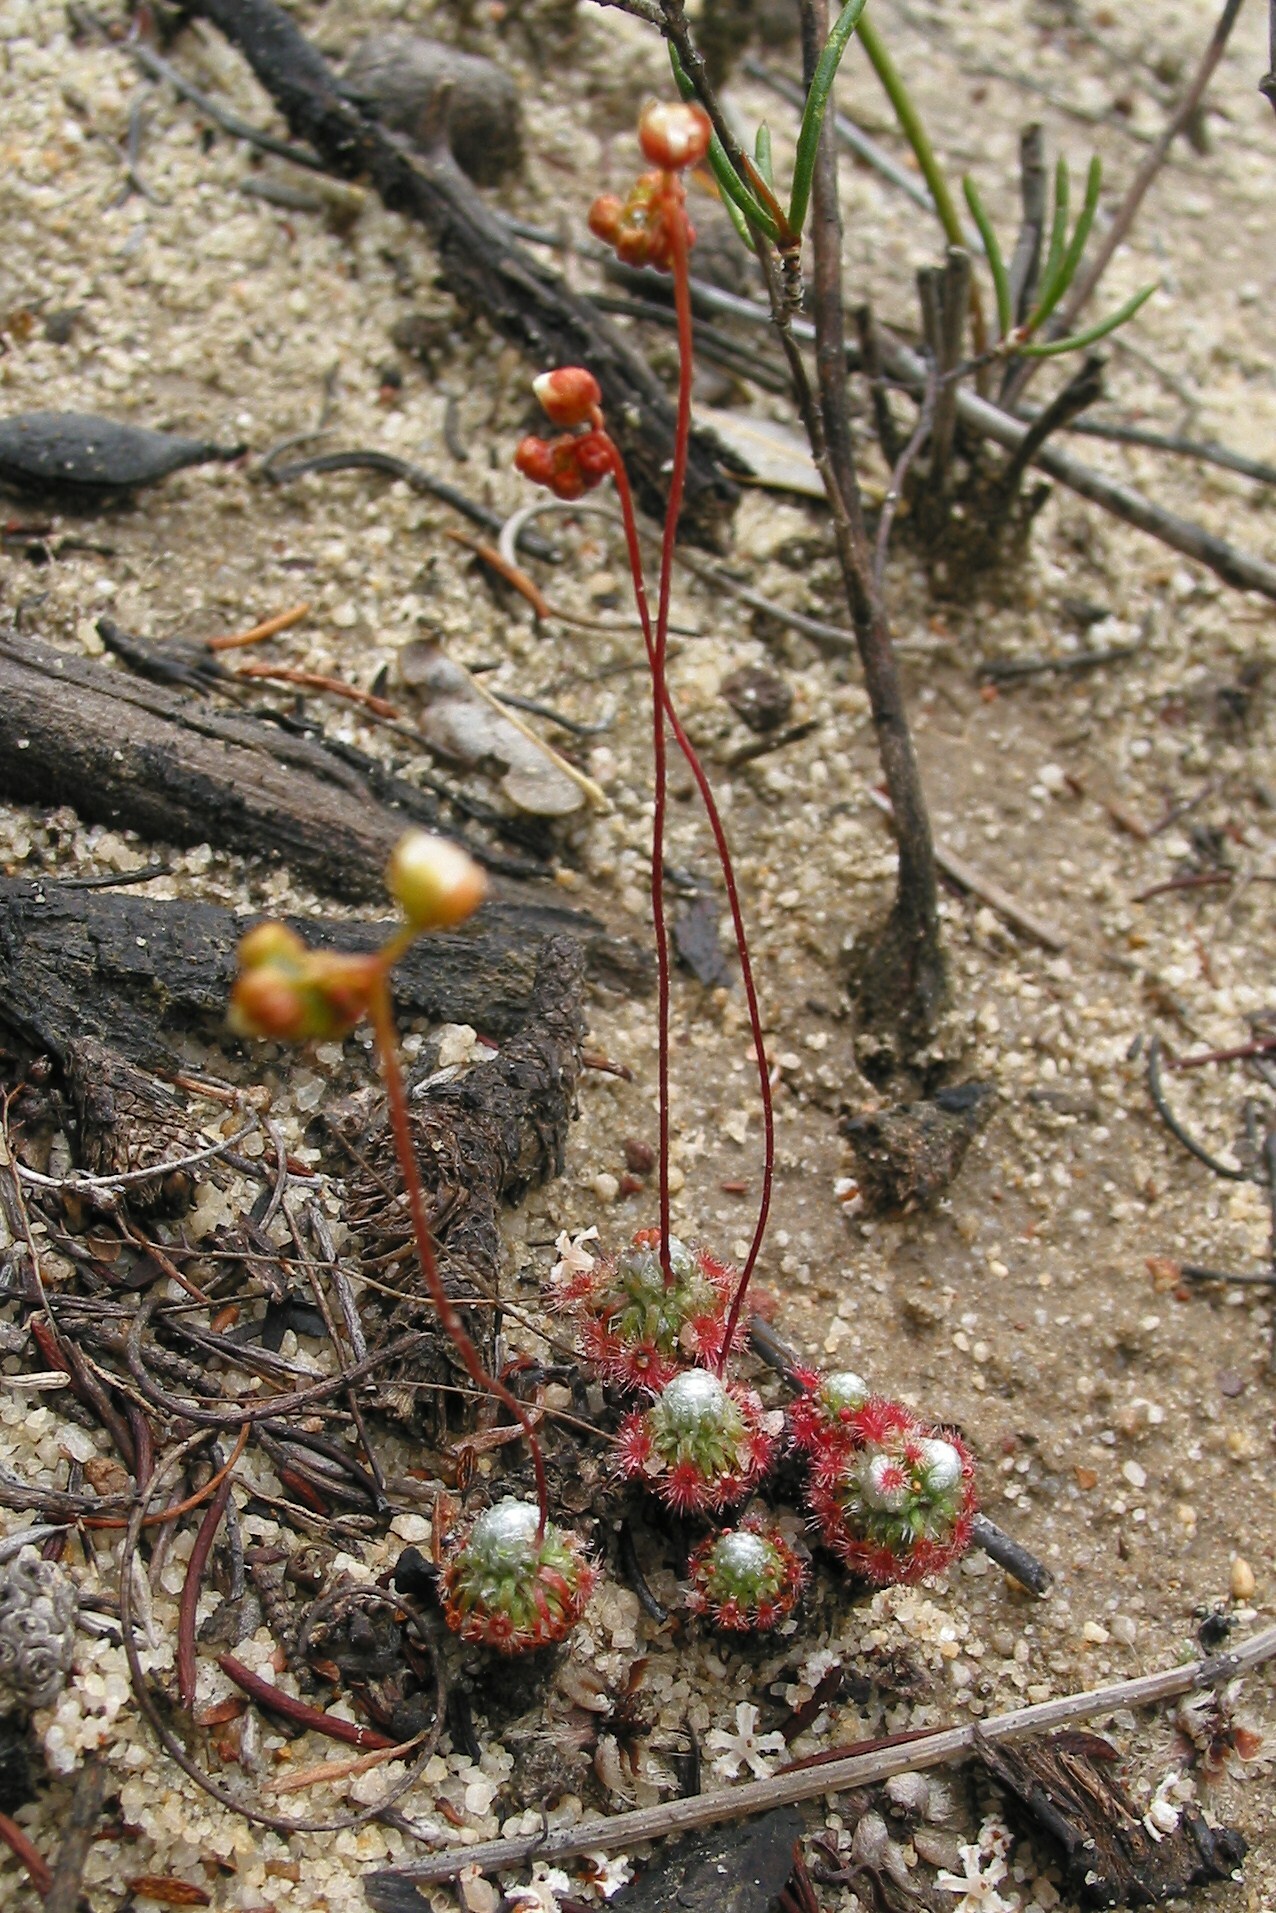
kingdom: Plantae
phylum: Tracheophyta
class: Magnoliopsida
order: Caryophyllales
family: Droseraceae
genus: Drosera
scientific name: Drosera pycnoblasta
